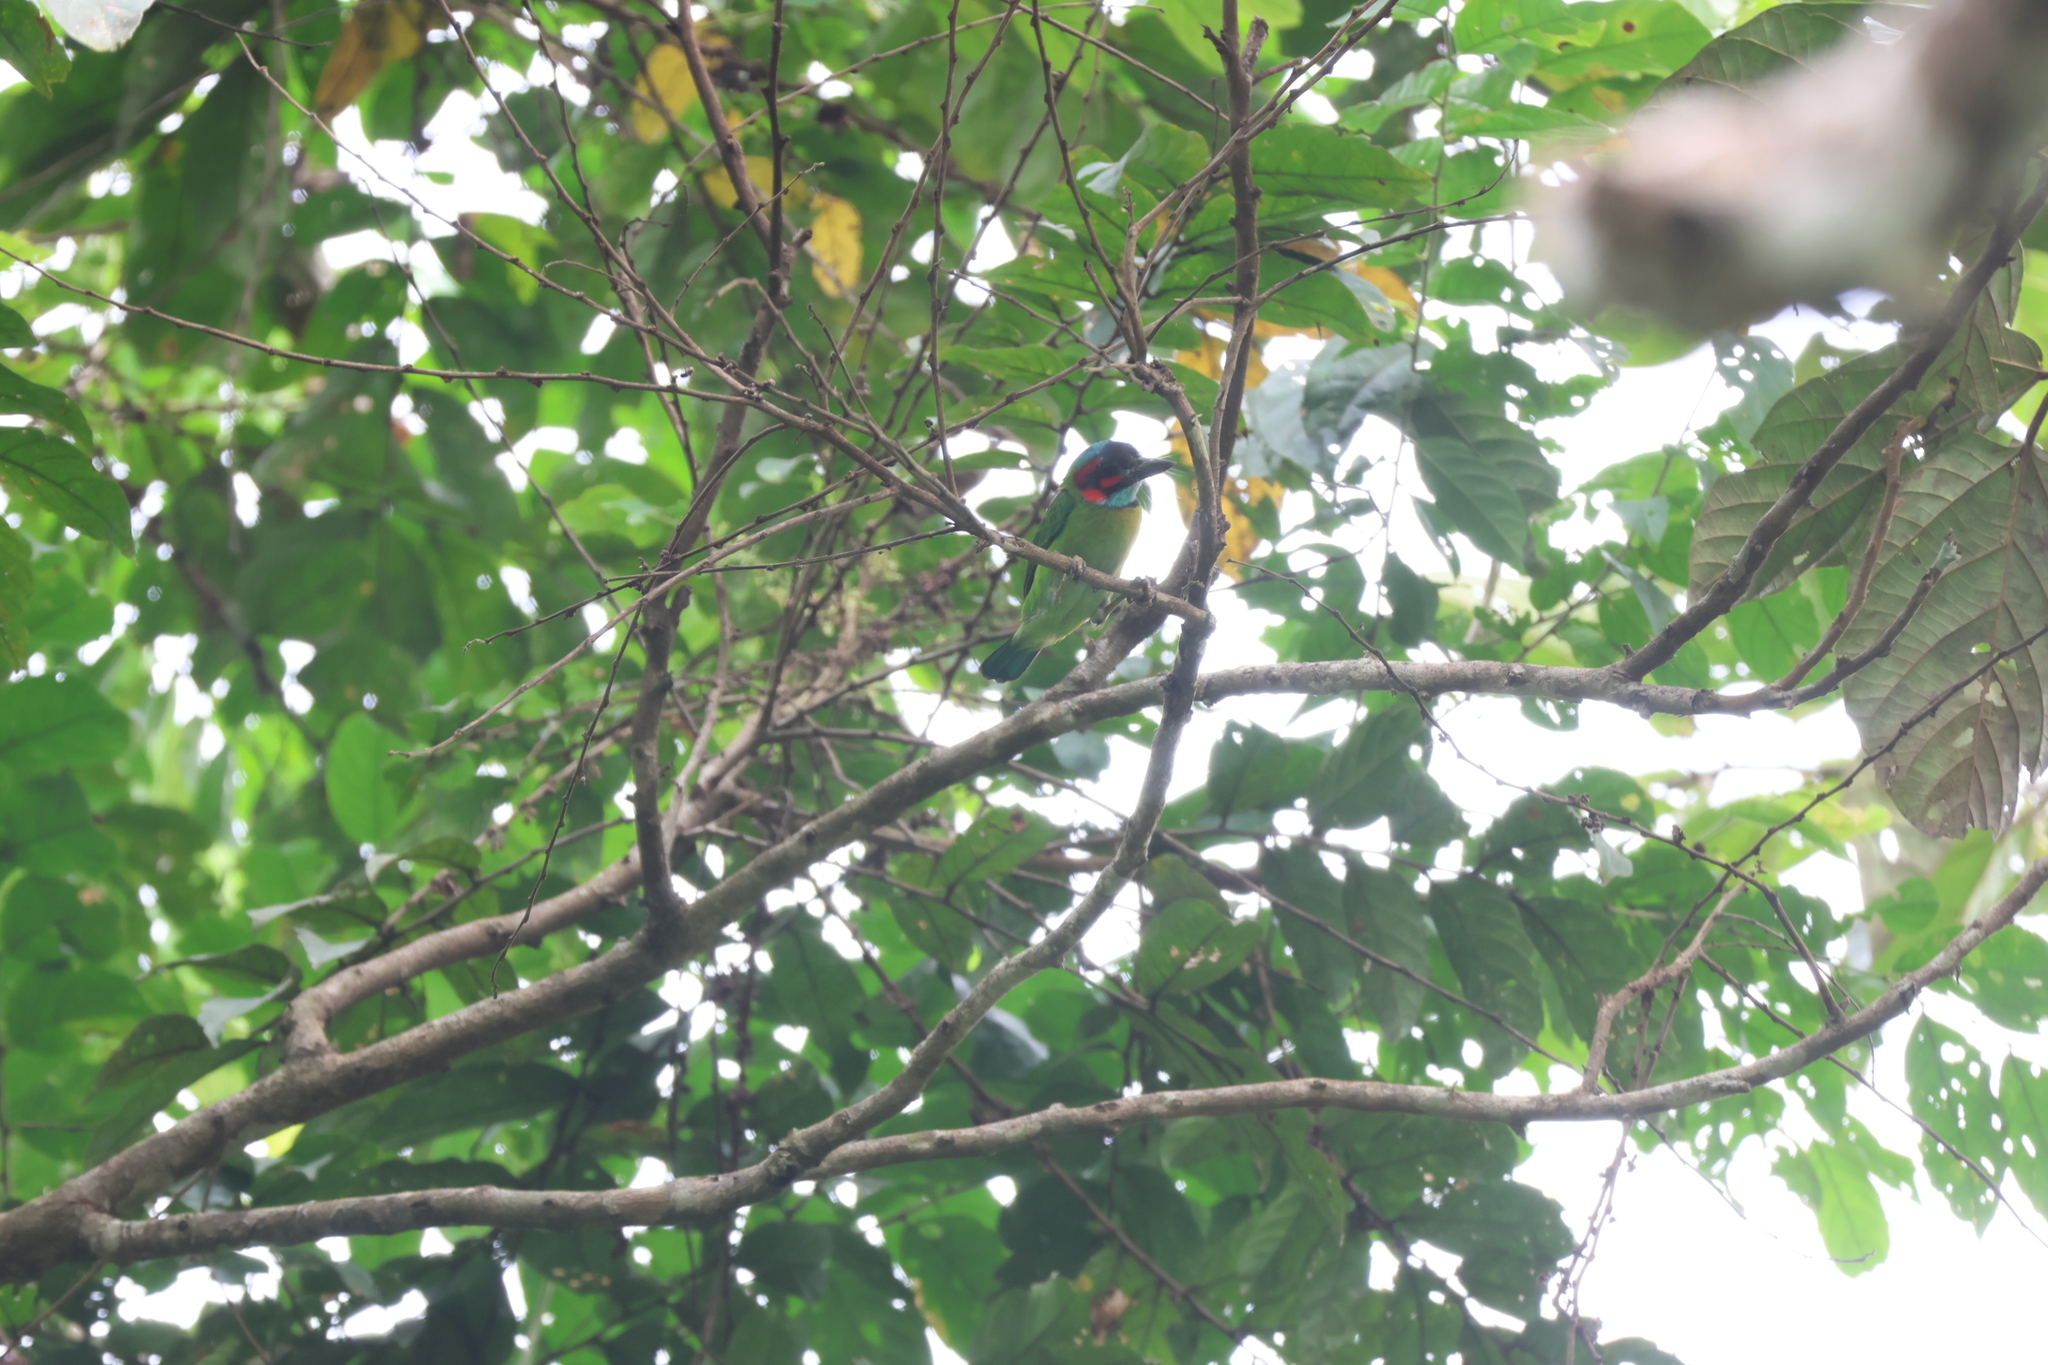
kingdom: Animalia
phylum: Chordata
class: Aves
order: Piciformes
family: Megalaimidae
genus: Psilopogon
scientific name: Psilopogon duvaucelii
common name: Blue-eared barbet
